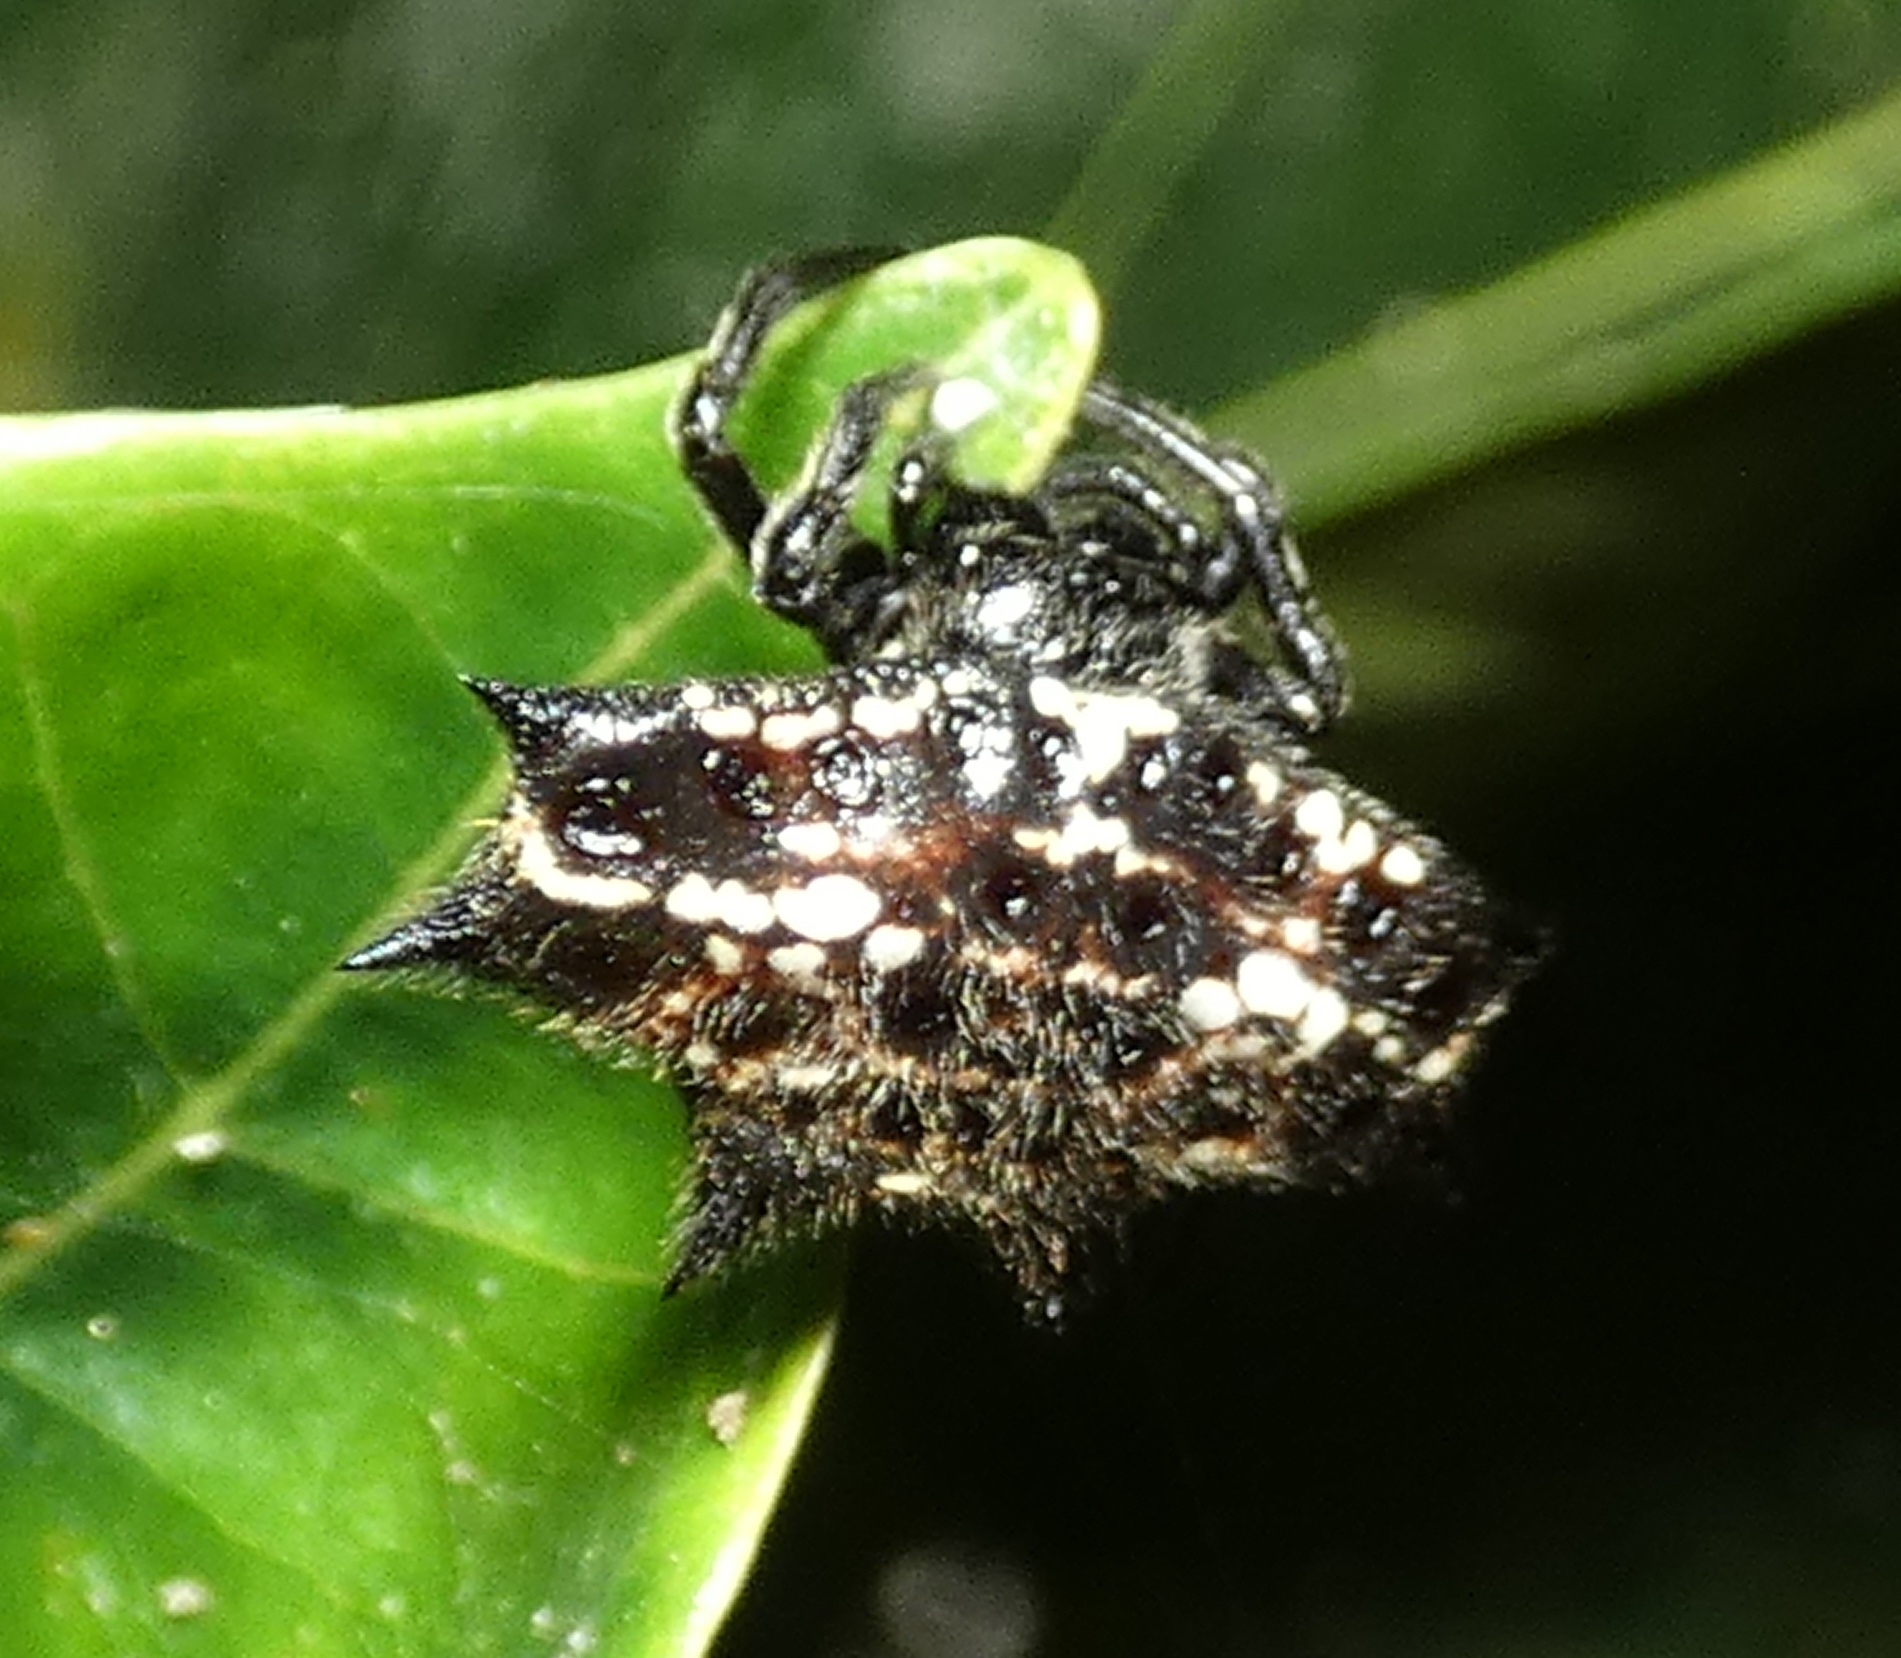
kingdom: Animalia
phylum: Arthropoda
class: Arachnida
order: Araneae
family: Araneidae
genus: Gasteracantha
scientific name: Gasteracantha cancriformis
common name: Orb weavers
